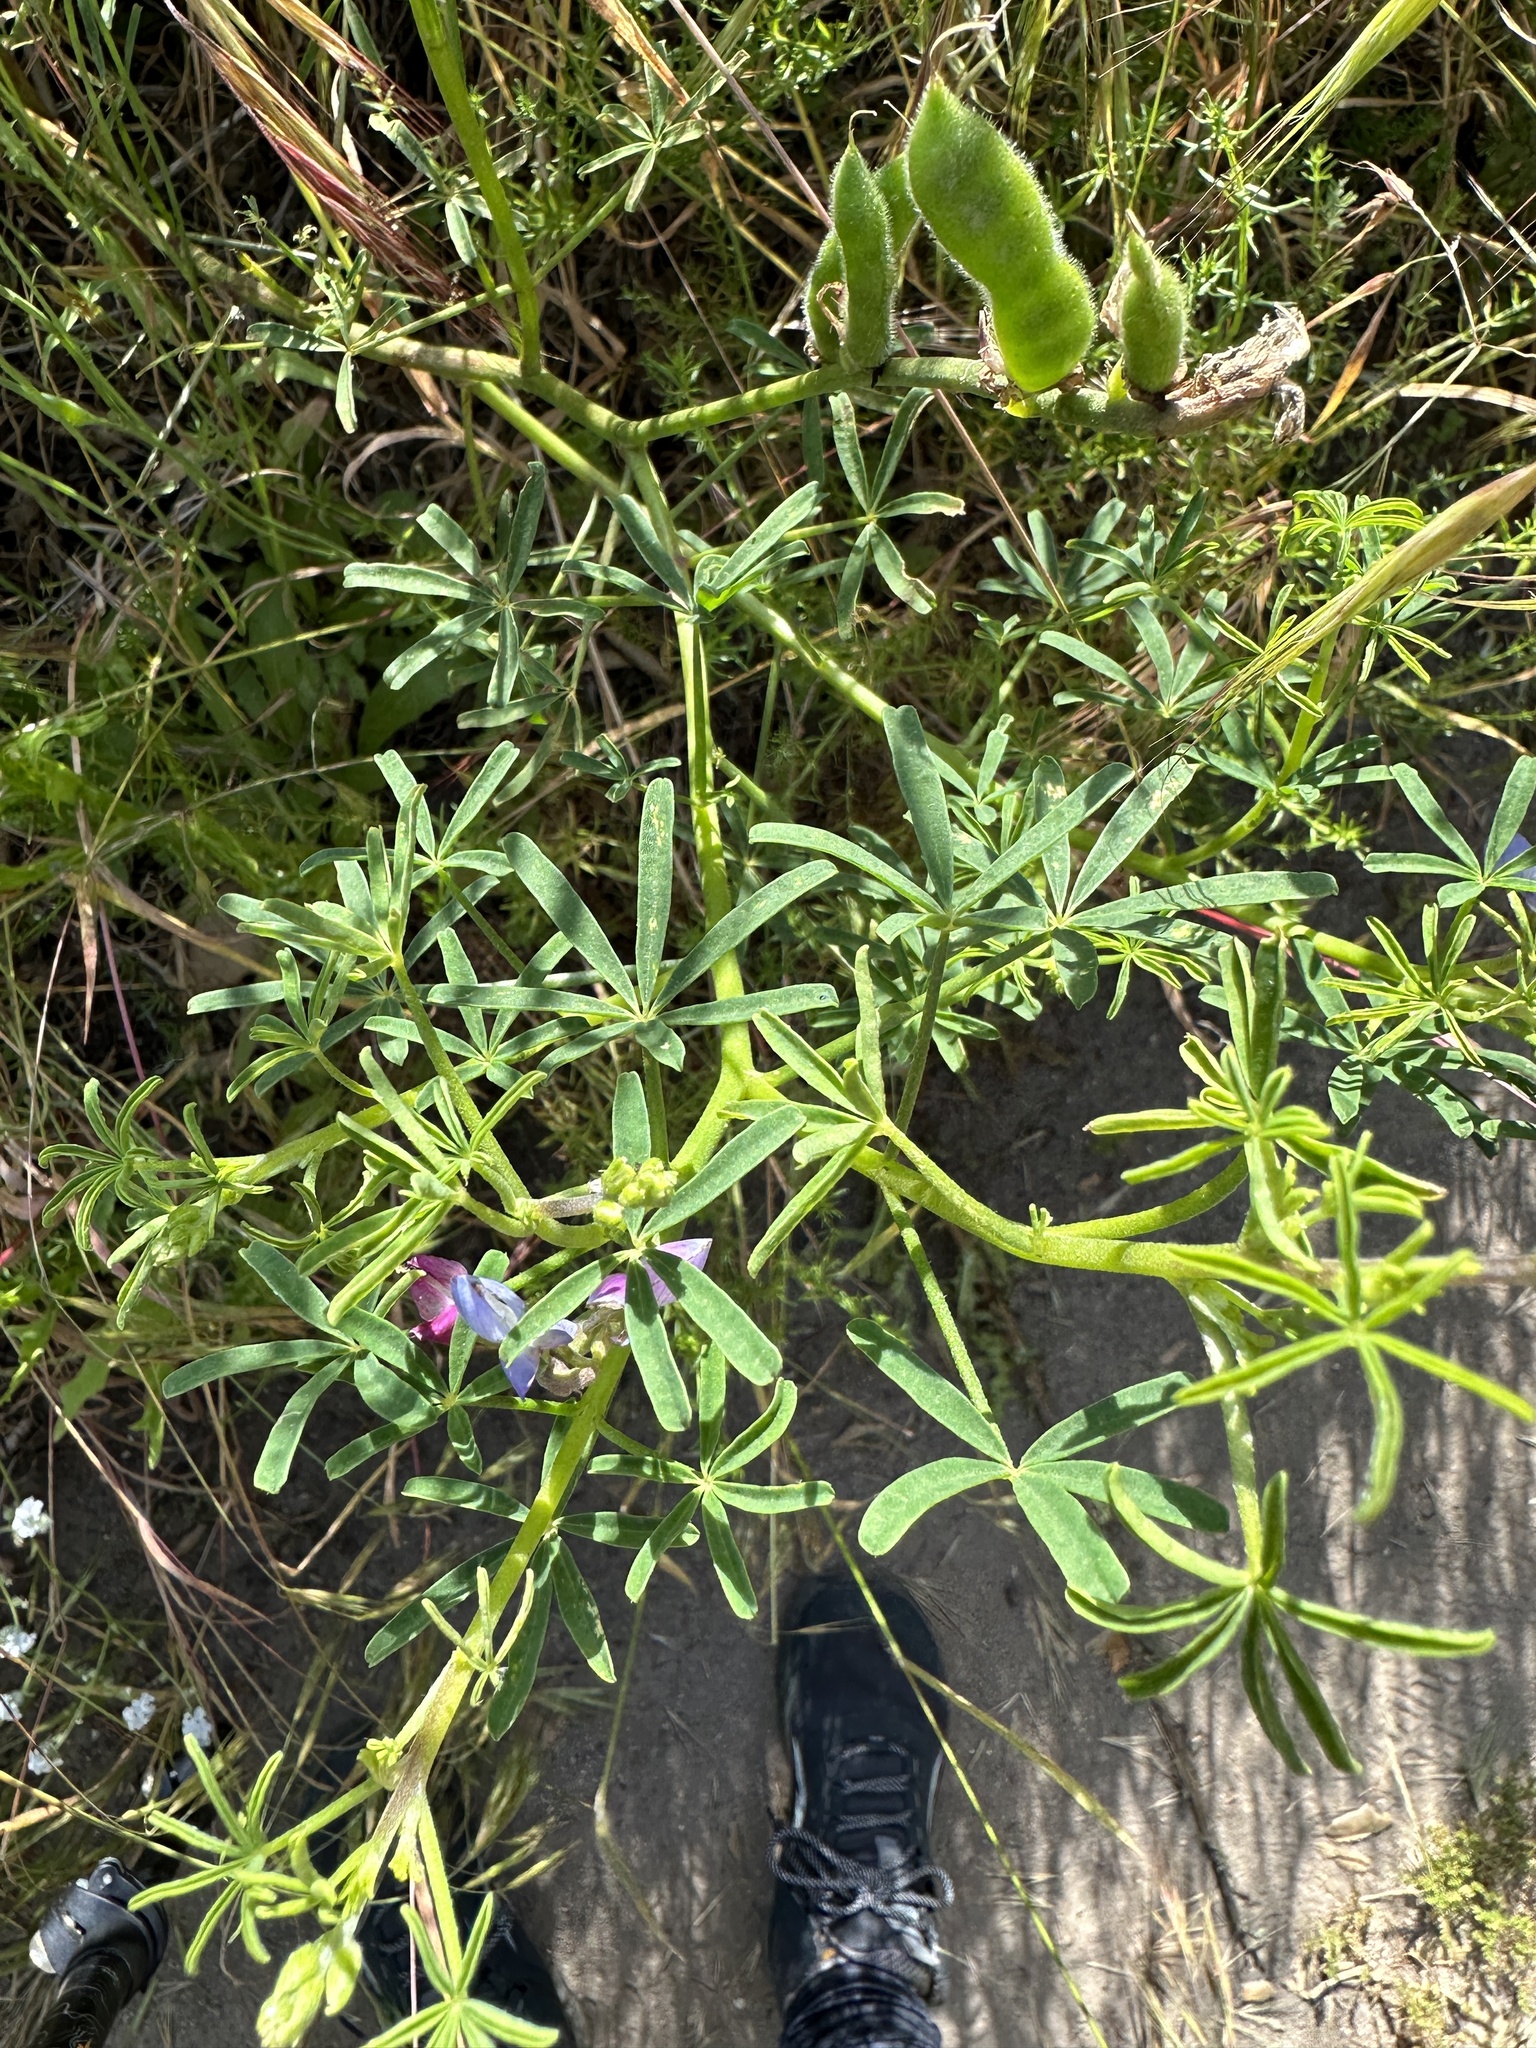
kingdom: Plantae
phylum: Tracheophyta
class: Magnoliopsida
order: Fabales
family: Fabaceae
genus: Lupinus
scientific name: Lupinus truncatus
